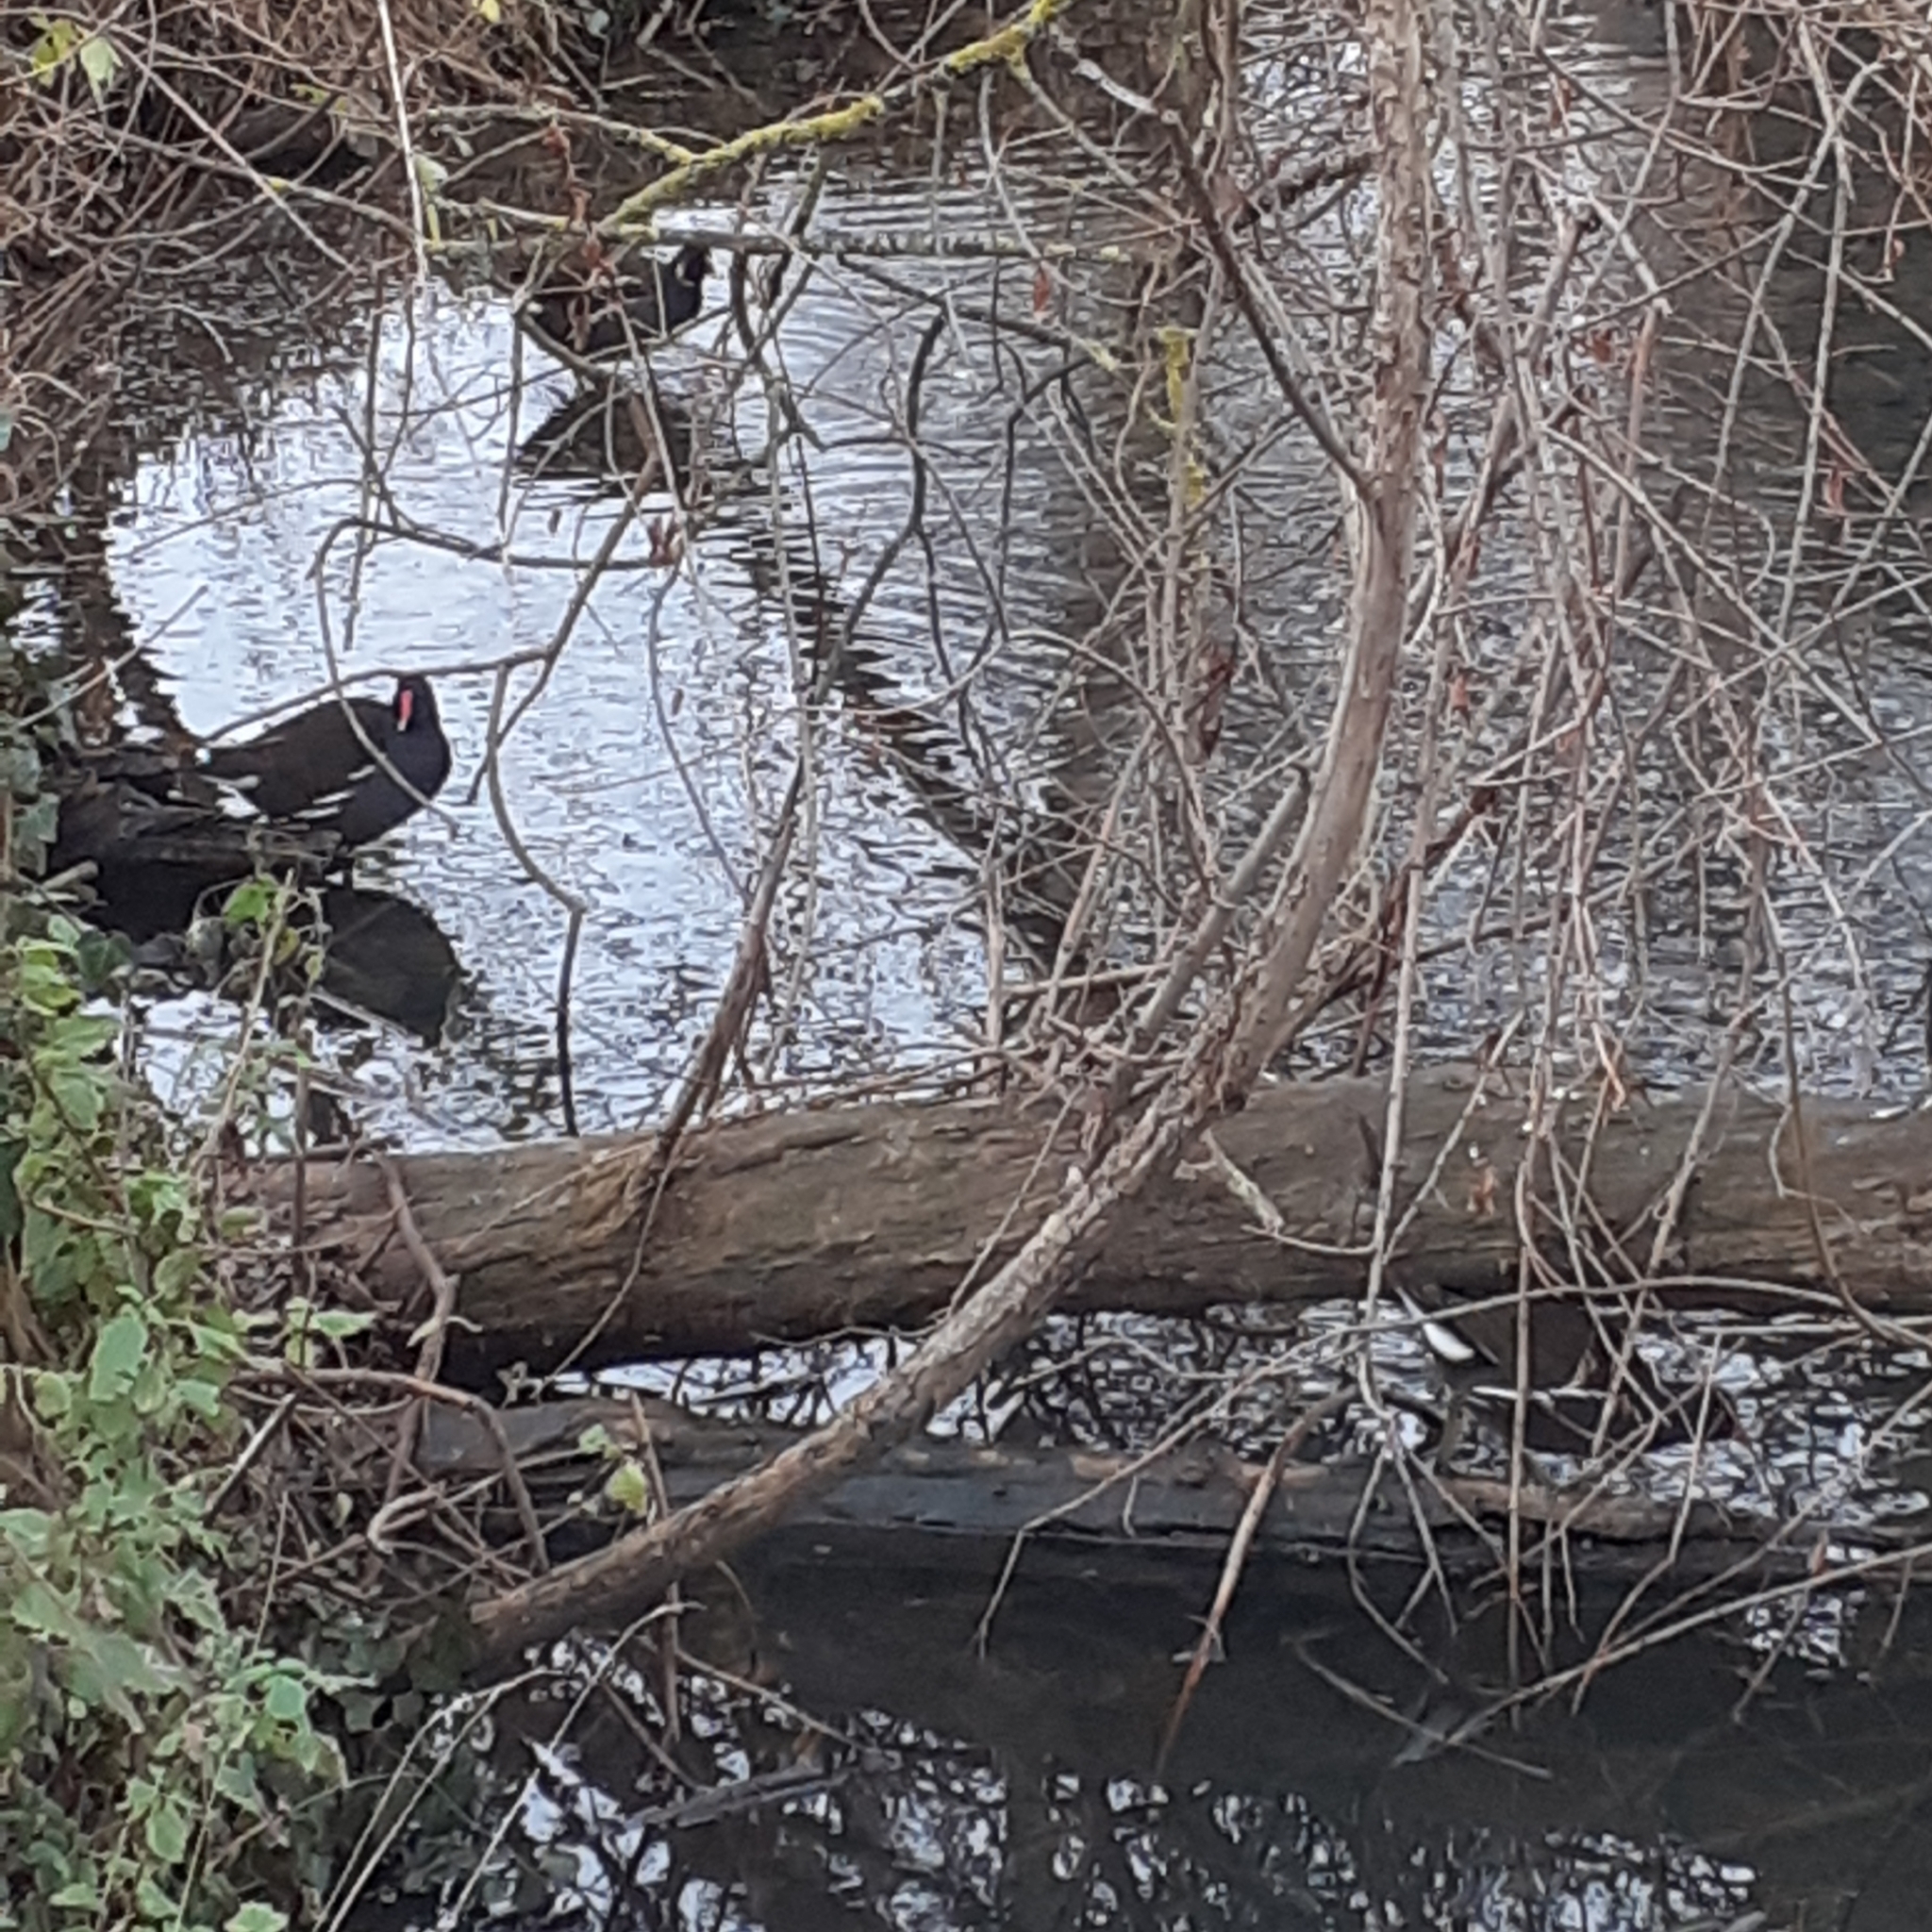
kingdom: Animalia
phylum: Chordata
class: Aves
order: Gruiformes
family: Rallidae
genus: Gallinula
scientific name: Gallinula chloropus
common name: Common moorhen
